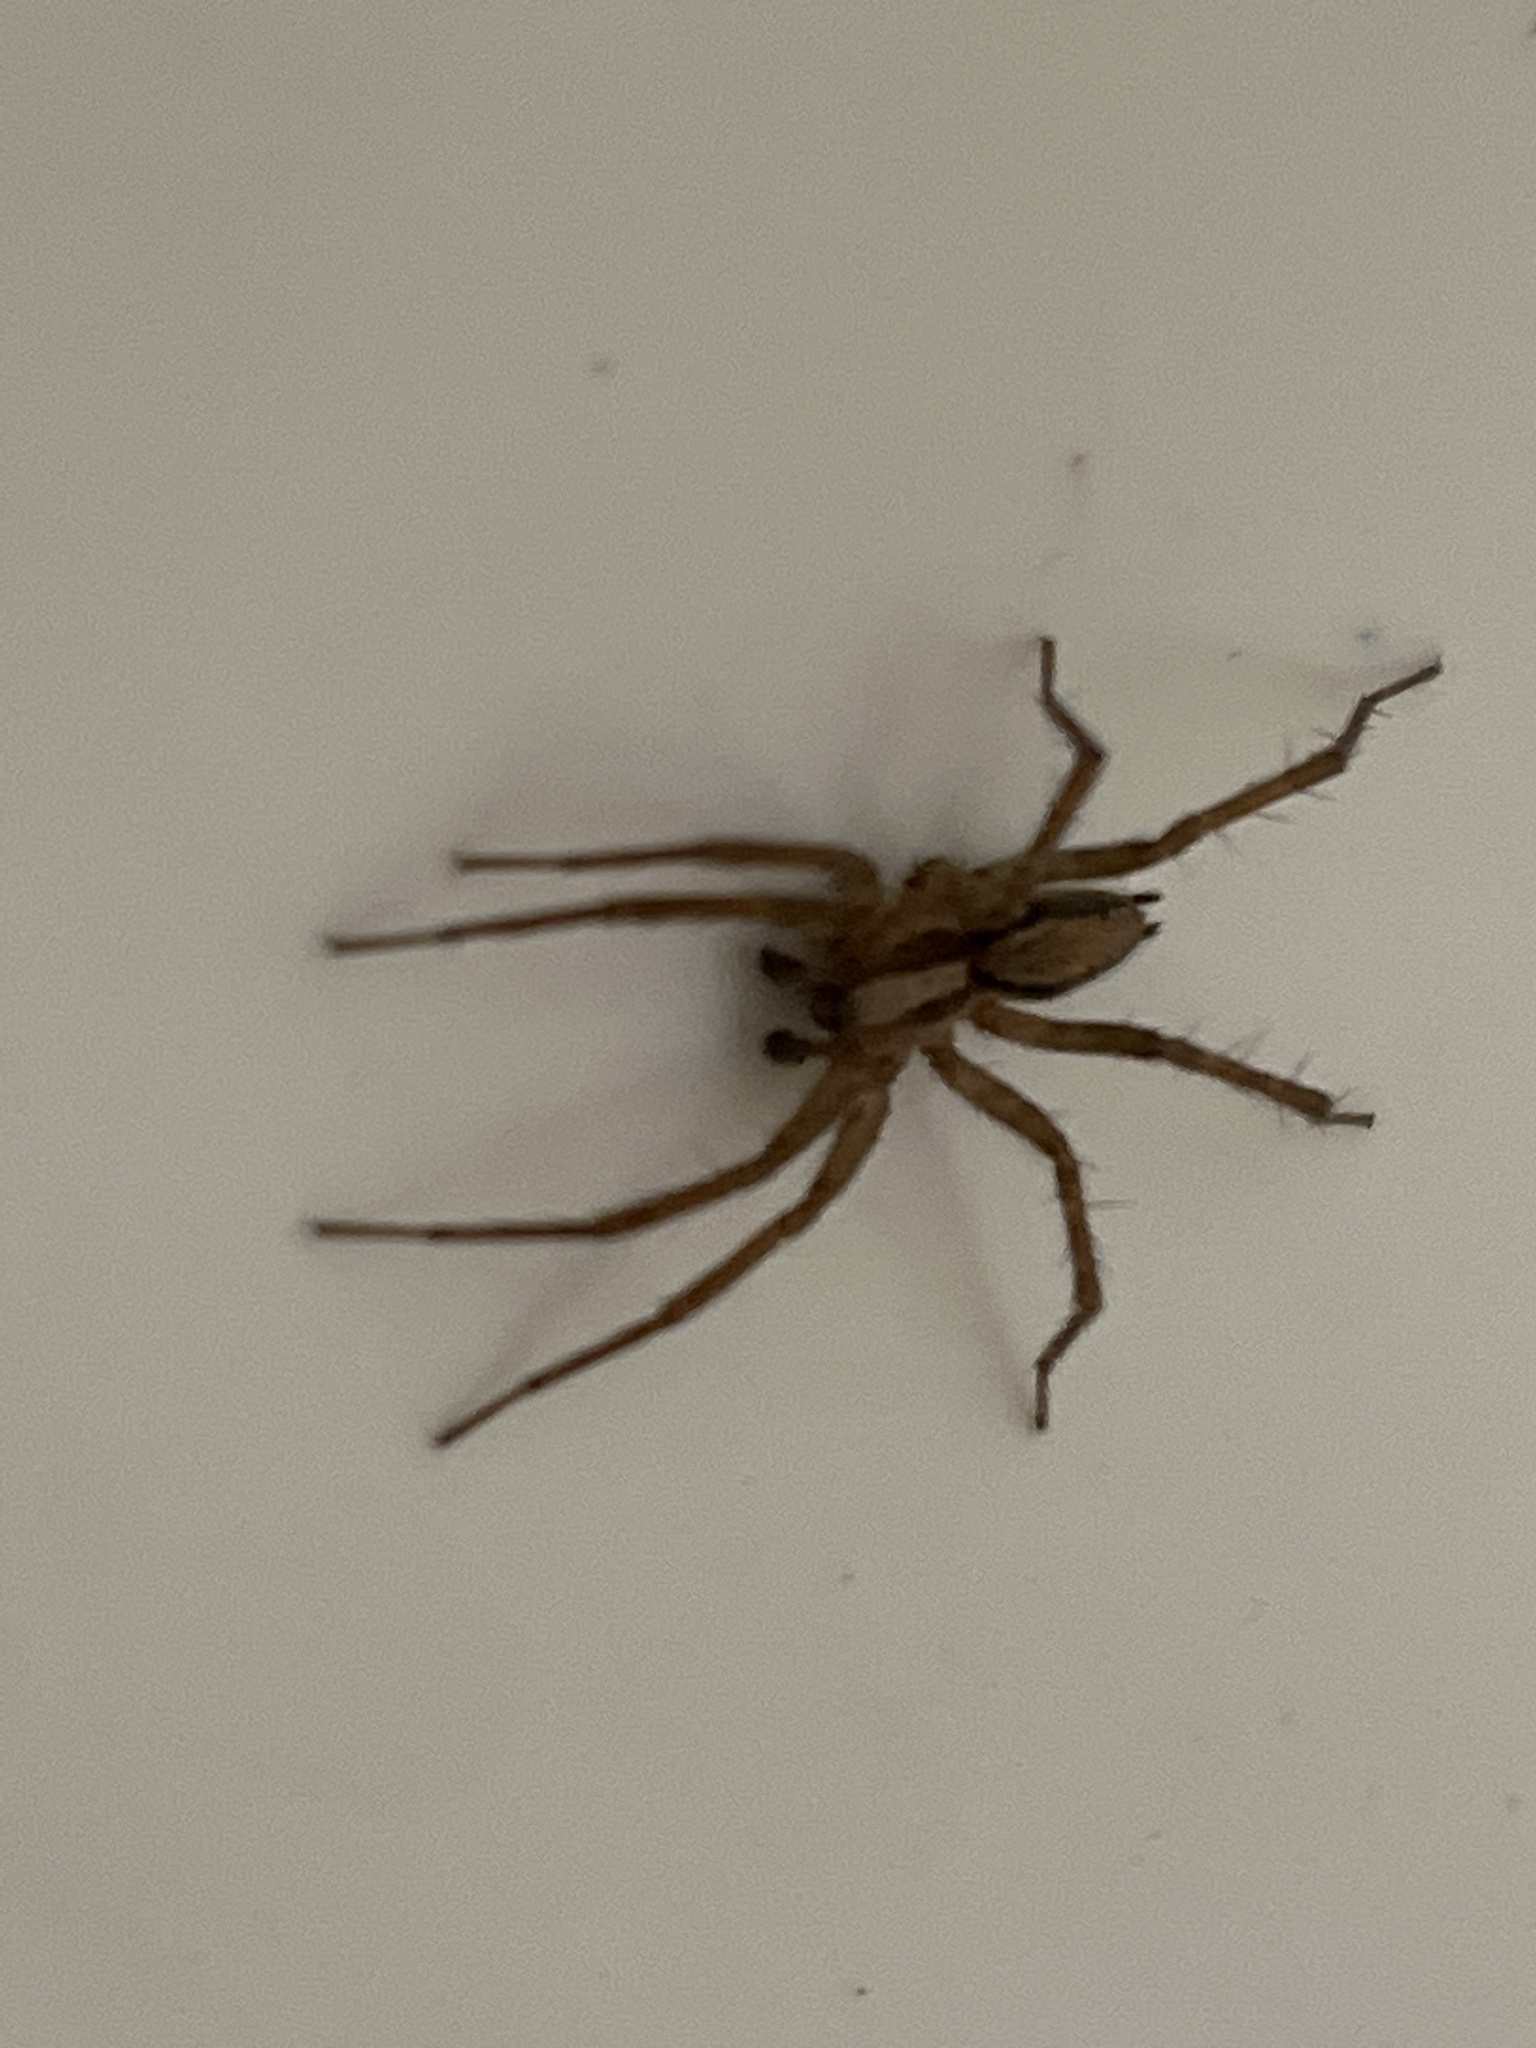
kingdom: Animalia
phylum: Arthropoda
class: Arachnida
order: Araneae
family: Agelenidae
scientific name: Agelenidae
